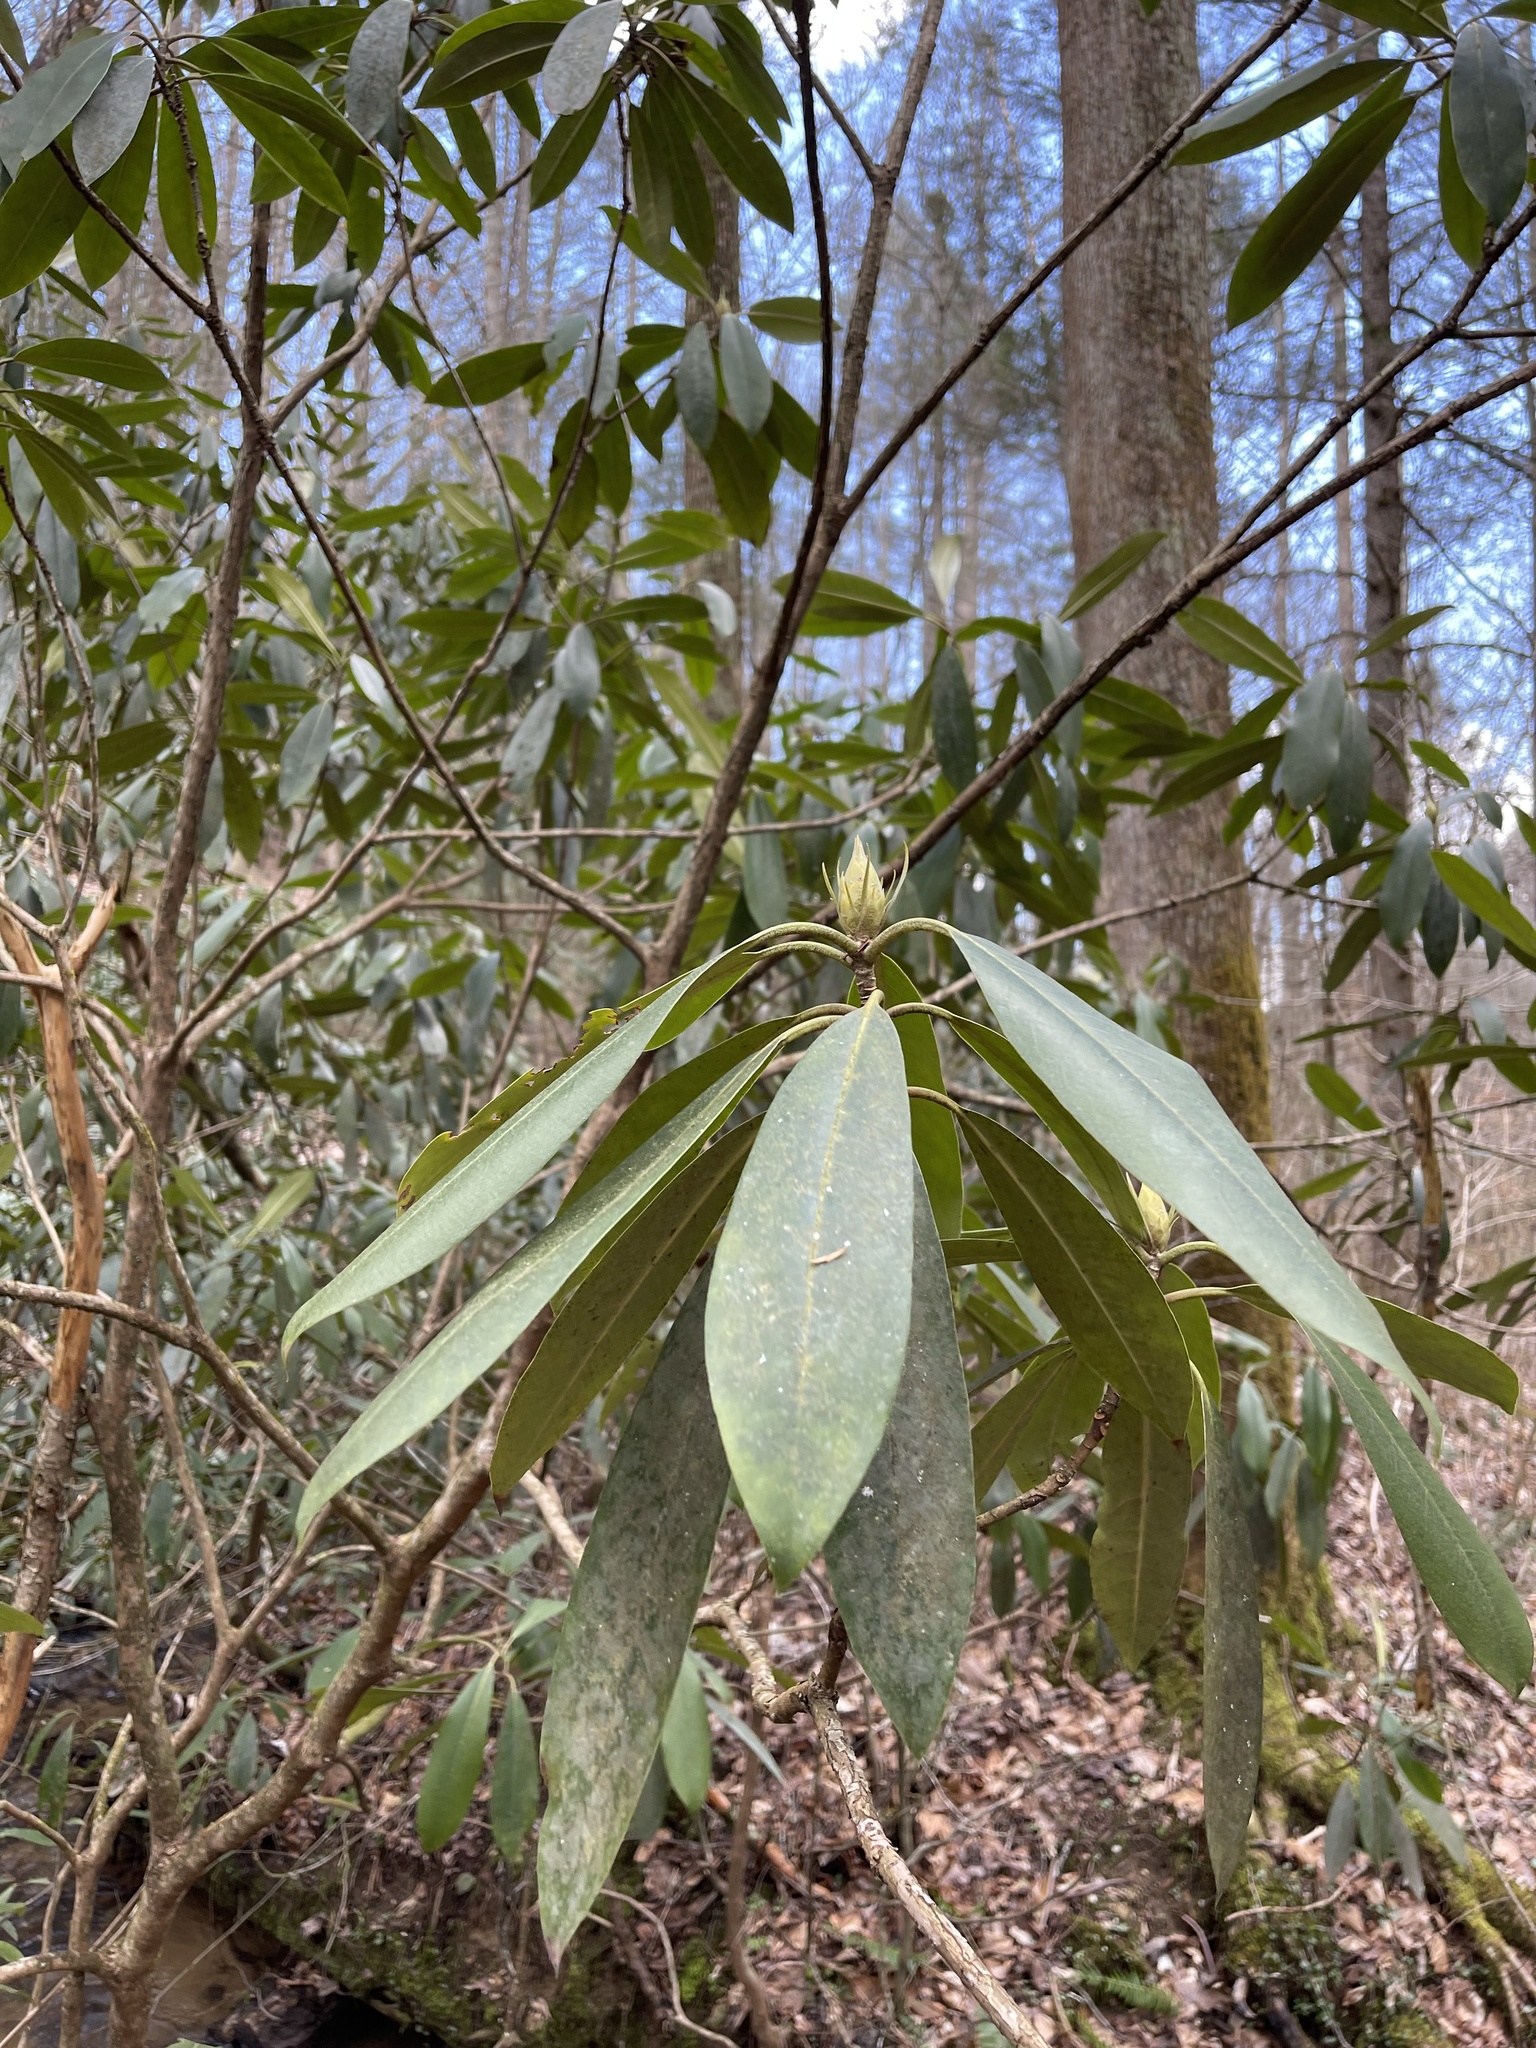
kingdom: Plantae
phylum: Tracheophyta
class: Magnoliopsida
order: Ericales
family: Ericaceae
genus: Rhododendron
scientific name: Rhododendron maximum
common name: Great rhododendron
